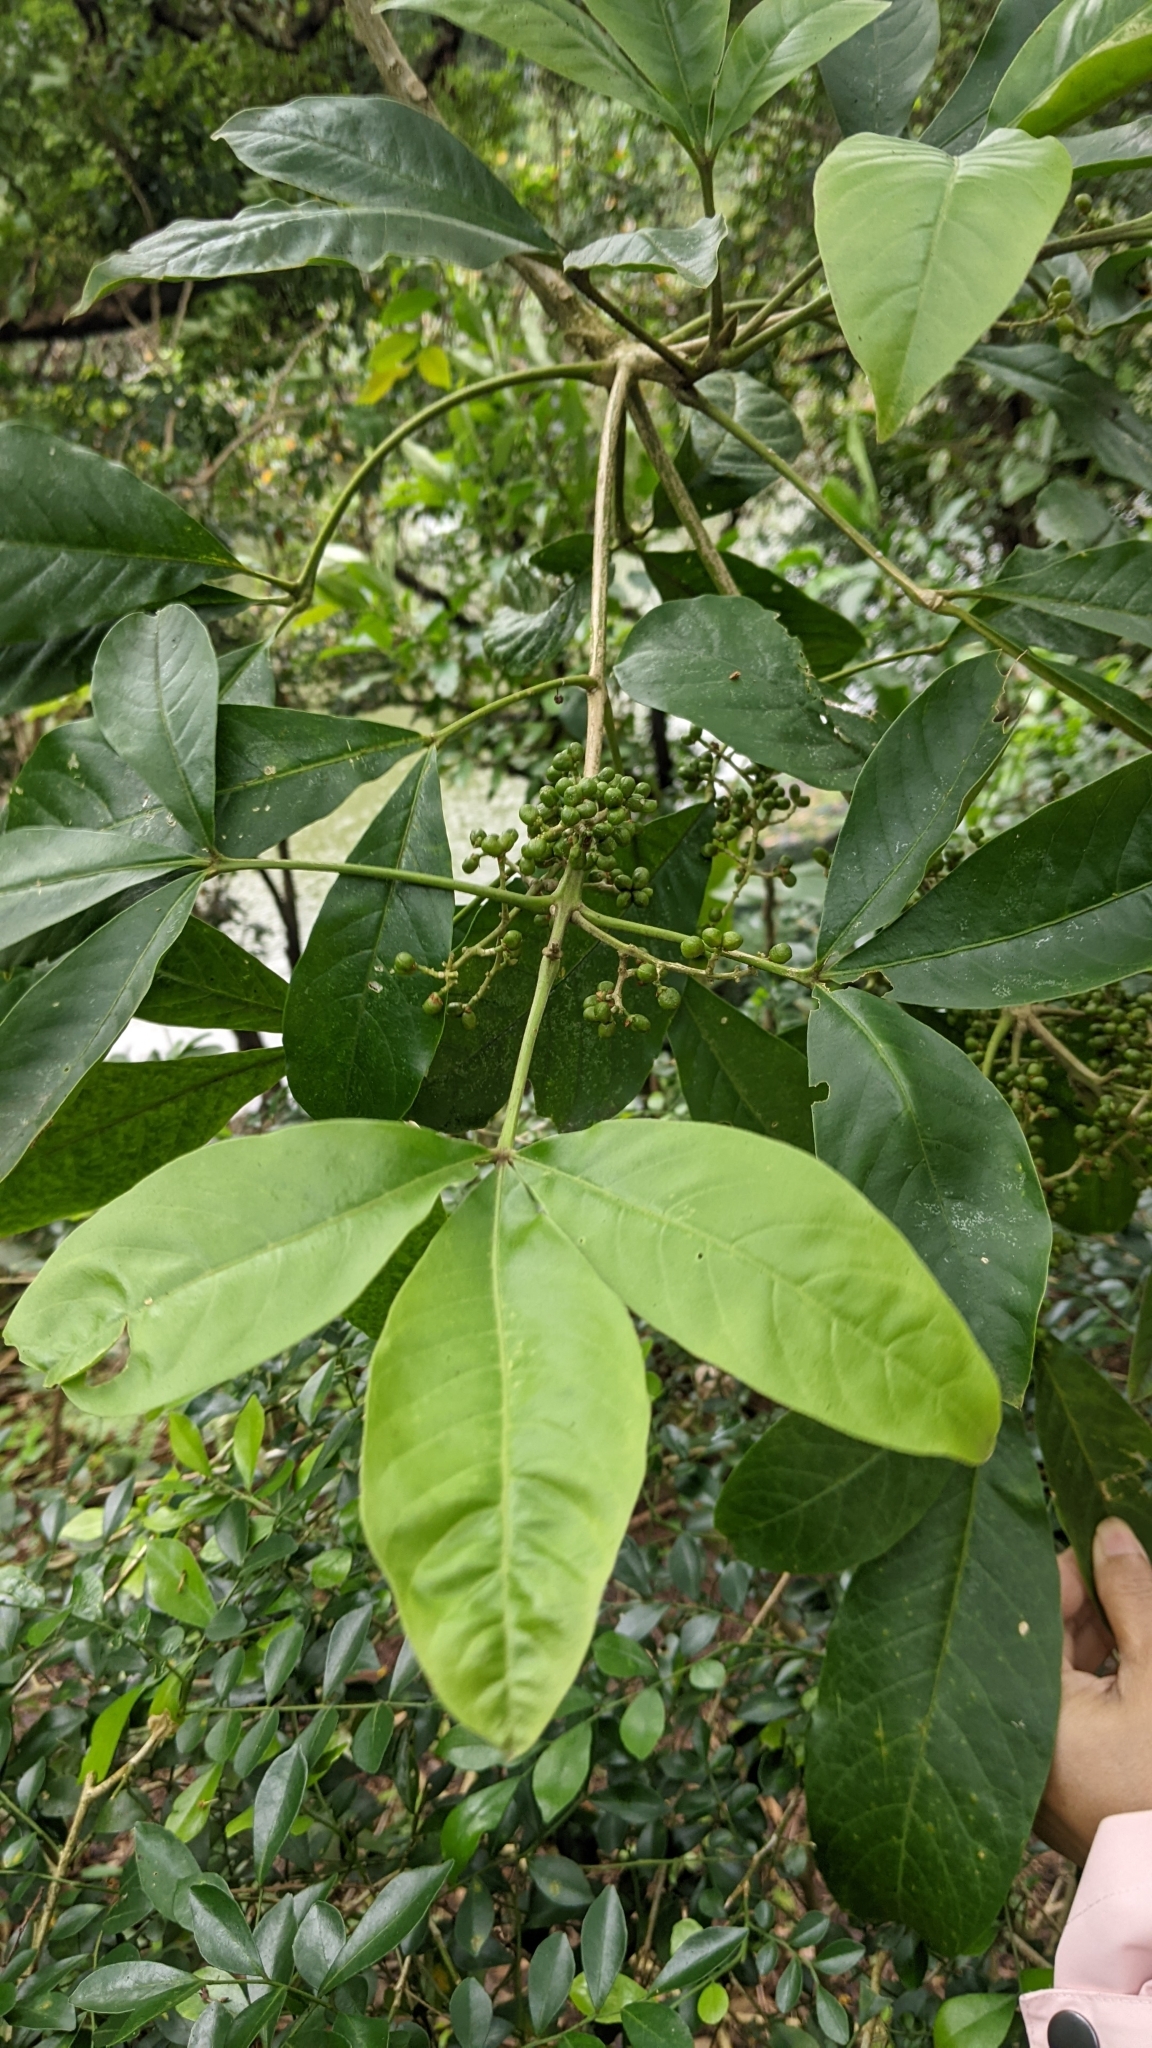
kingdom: Plantae
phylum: Tracheophyta
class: Magnoliopsida
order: Sapindales
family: Rutaceae
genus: Melicope
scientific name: Melicope semecarpifolia
